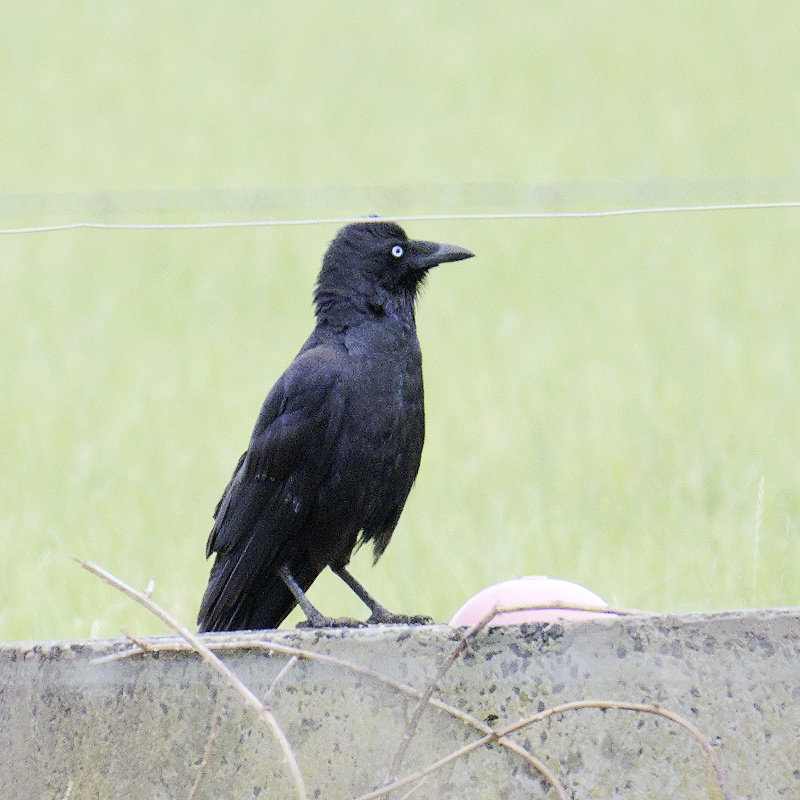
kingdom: Animalia
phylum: Chordata
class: Aves
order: Passeriformes
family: Corvidae
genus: Corvus
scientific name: Corvus mellori
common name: Little raven
